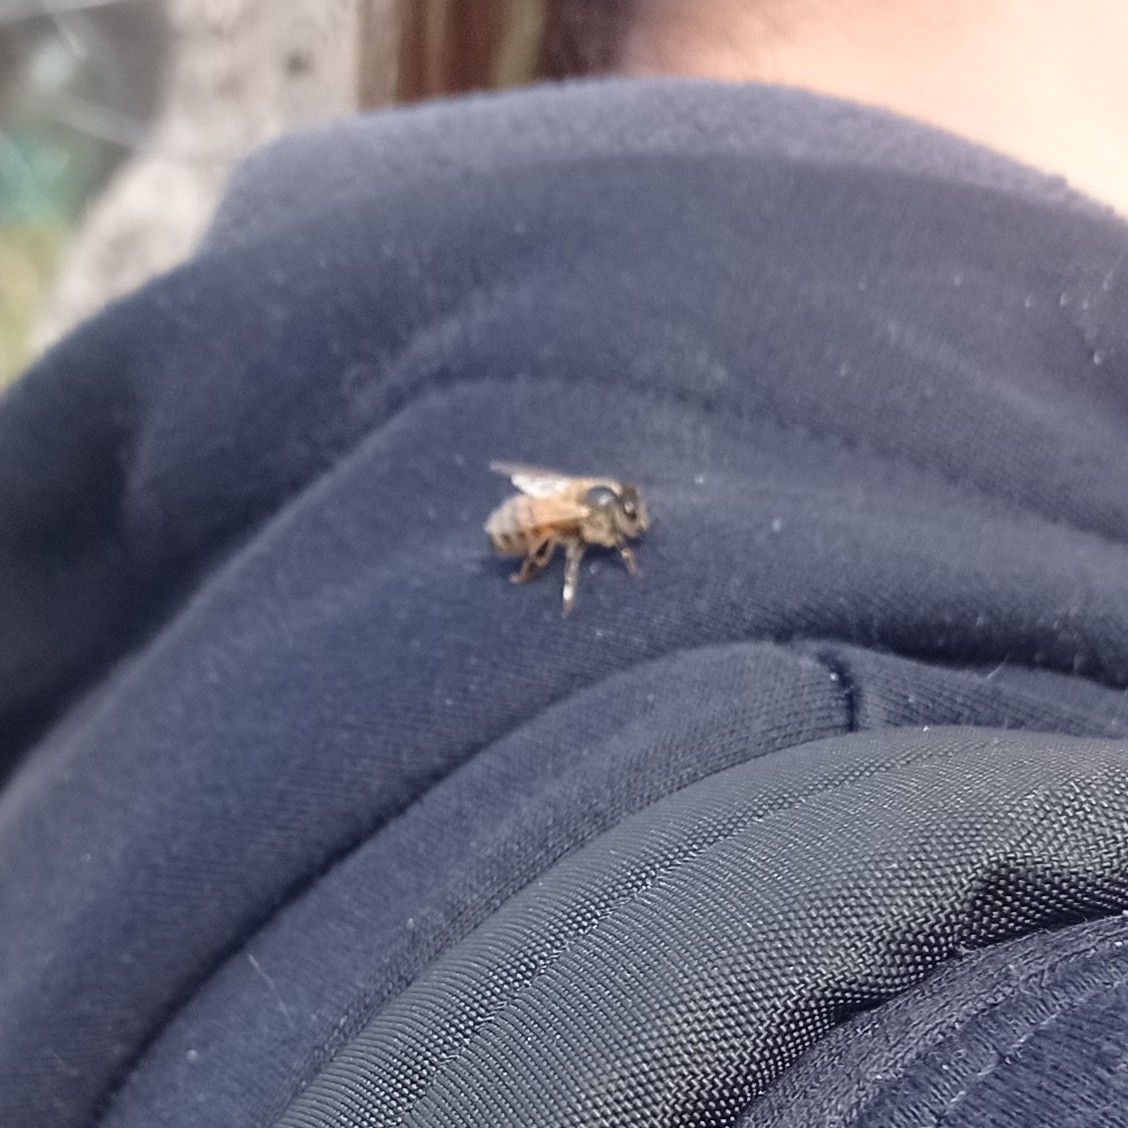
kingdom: Animalia
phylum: Arthropoda
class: Insecta
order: Hymenoptera
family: Apidae
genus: Apis
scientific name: Apis mellifera
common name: Honey bee
